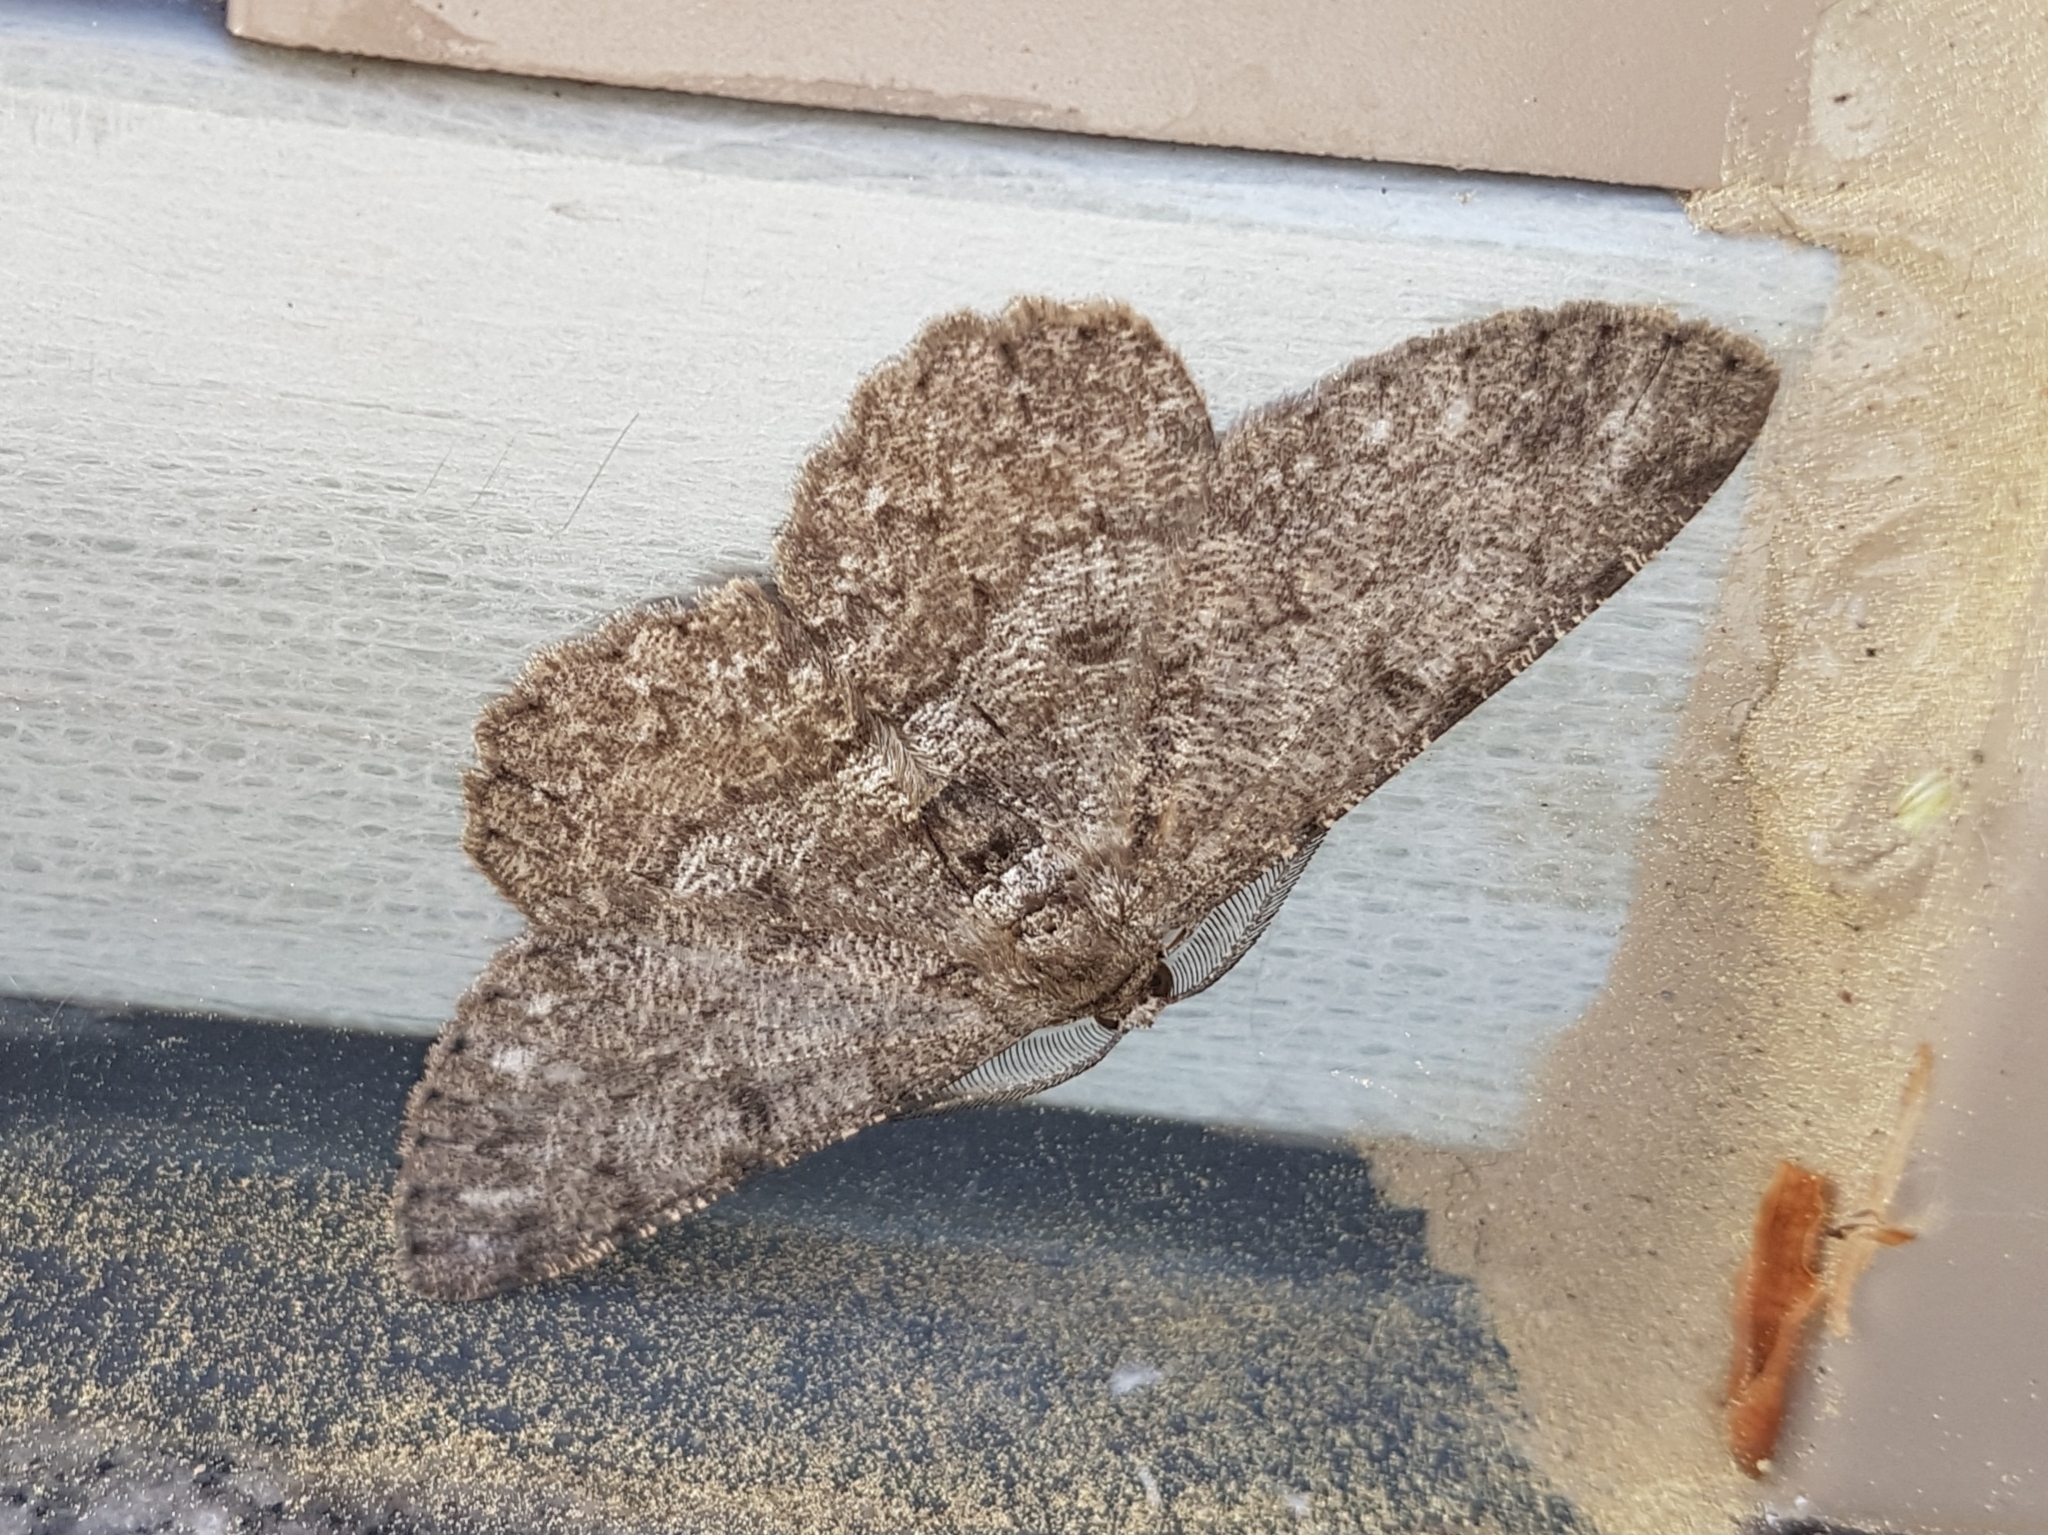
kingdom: Animalia
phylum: Arthropoda
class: Insecta
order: Lepidoptera
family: Geometridae
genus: Hypomecis
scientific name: Hypomecis punctinalis
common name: Pale oak beauty
